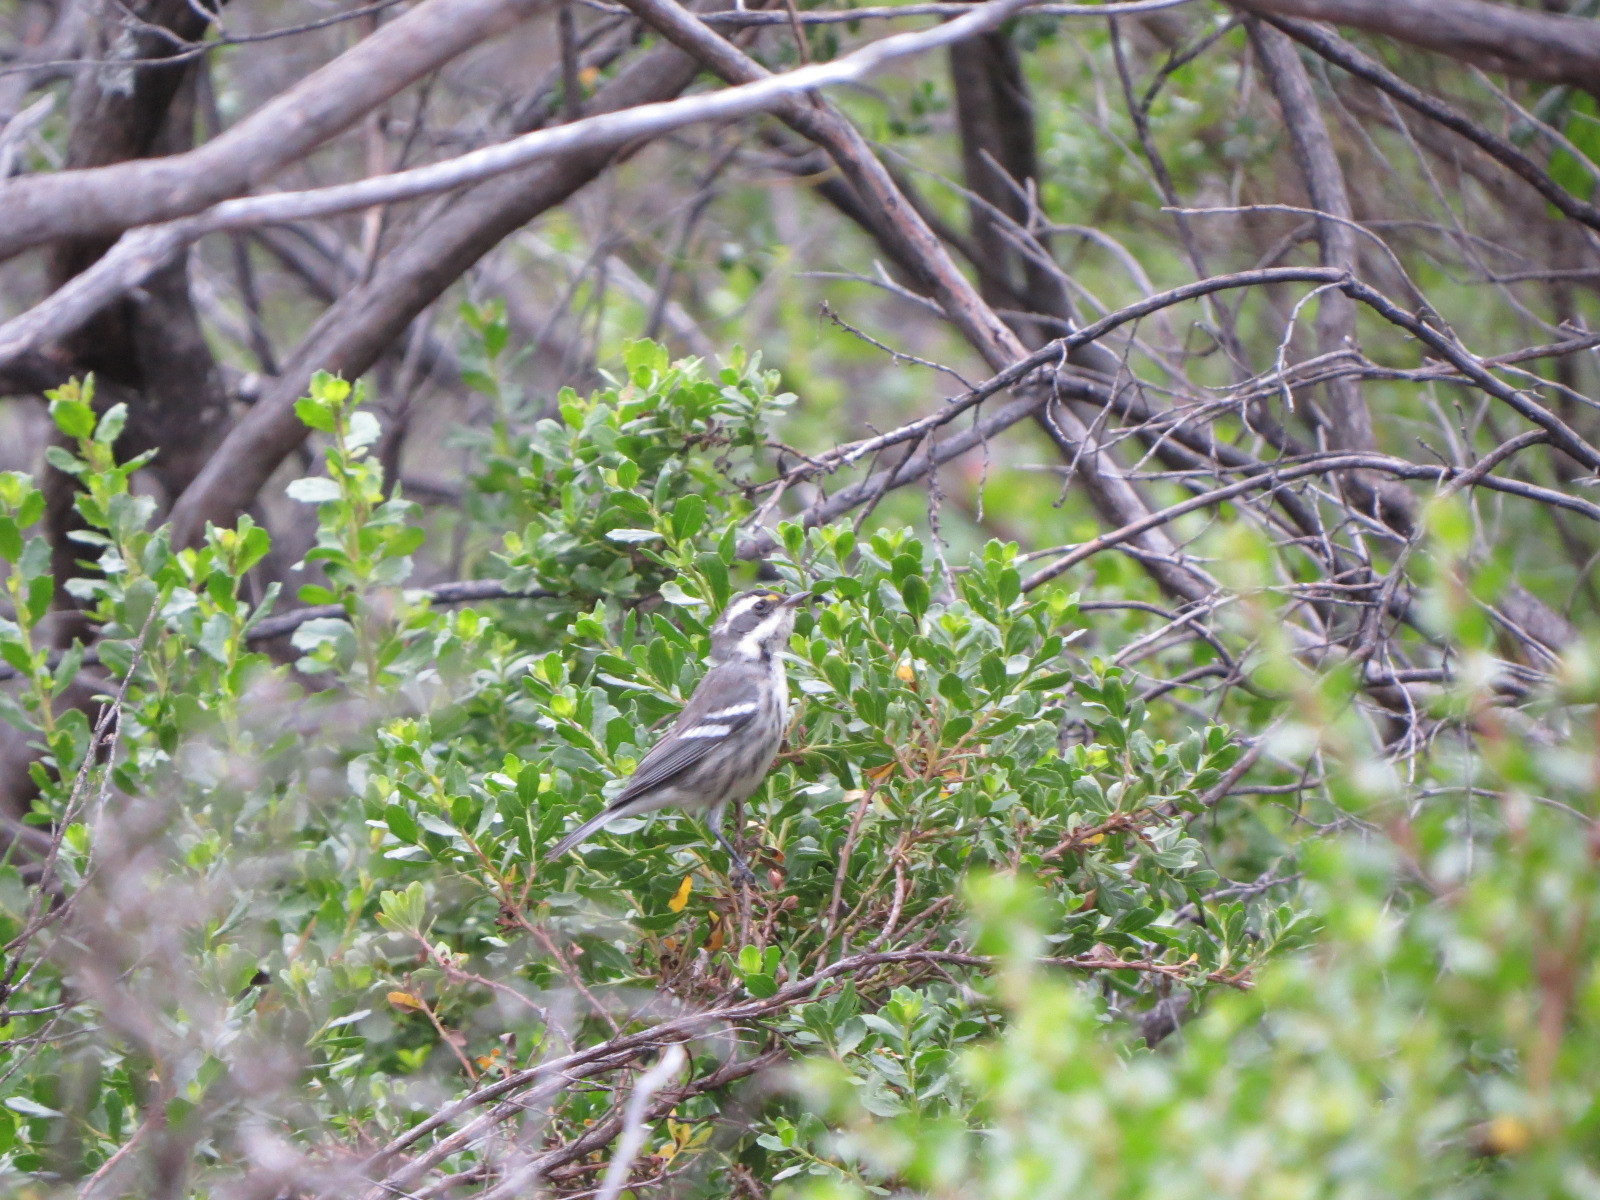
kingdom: Animalia
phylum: Chordata
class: Aves
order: Passeriformes
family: Parulidae
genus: Setophaga
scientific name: Setophaga nigrescens
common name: Black-throated gray warbler
